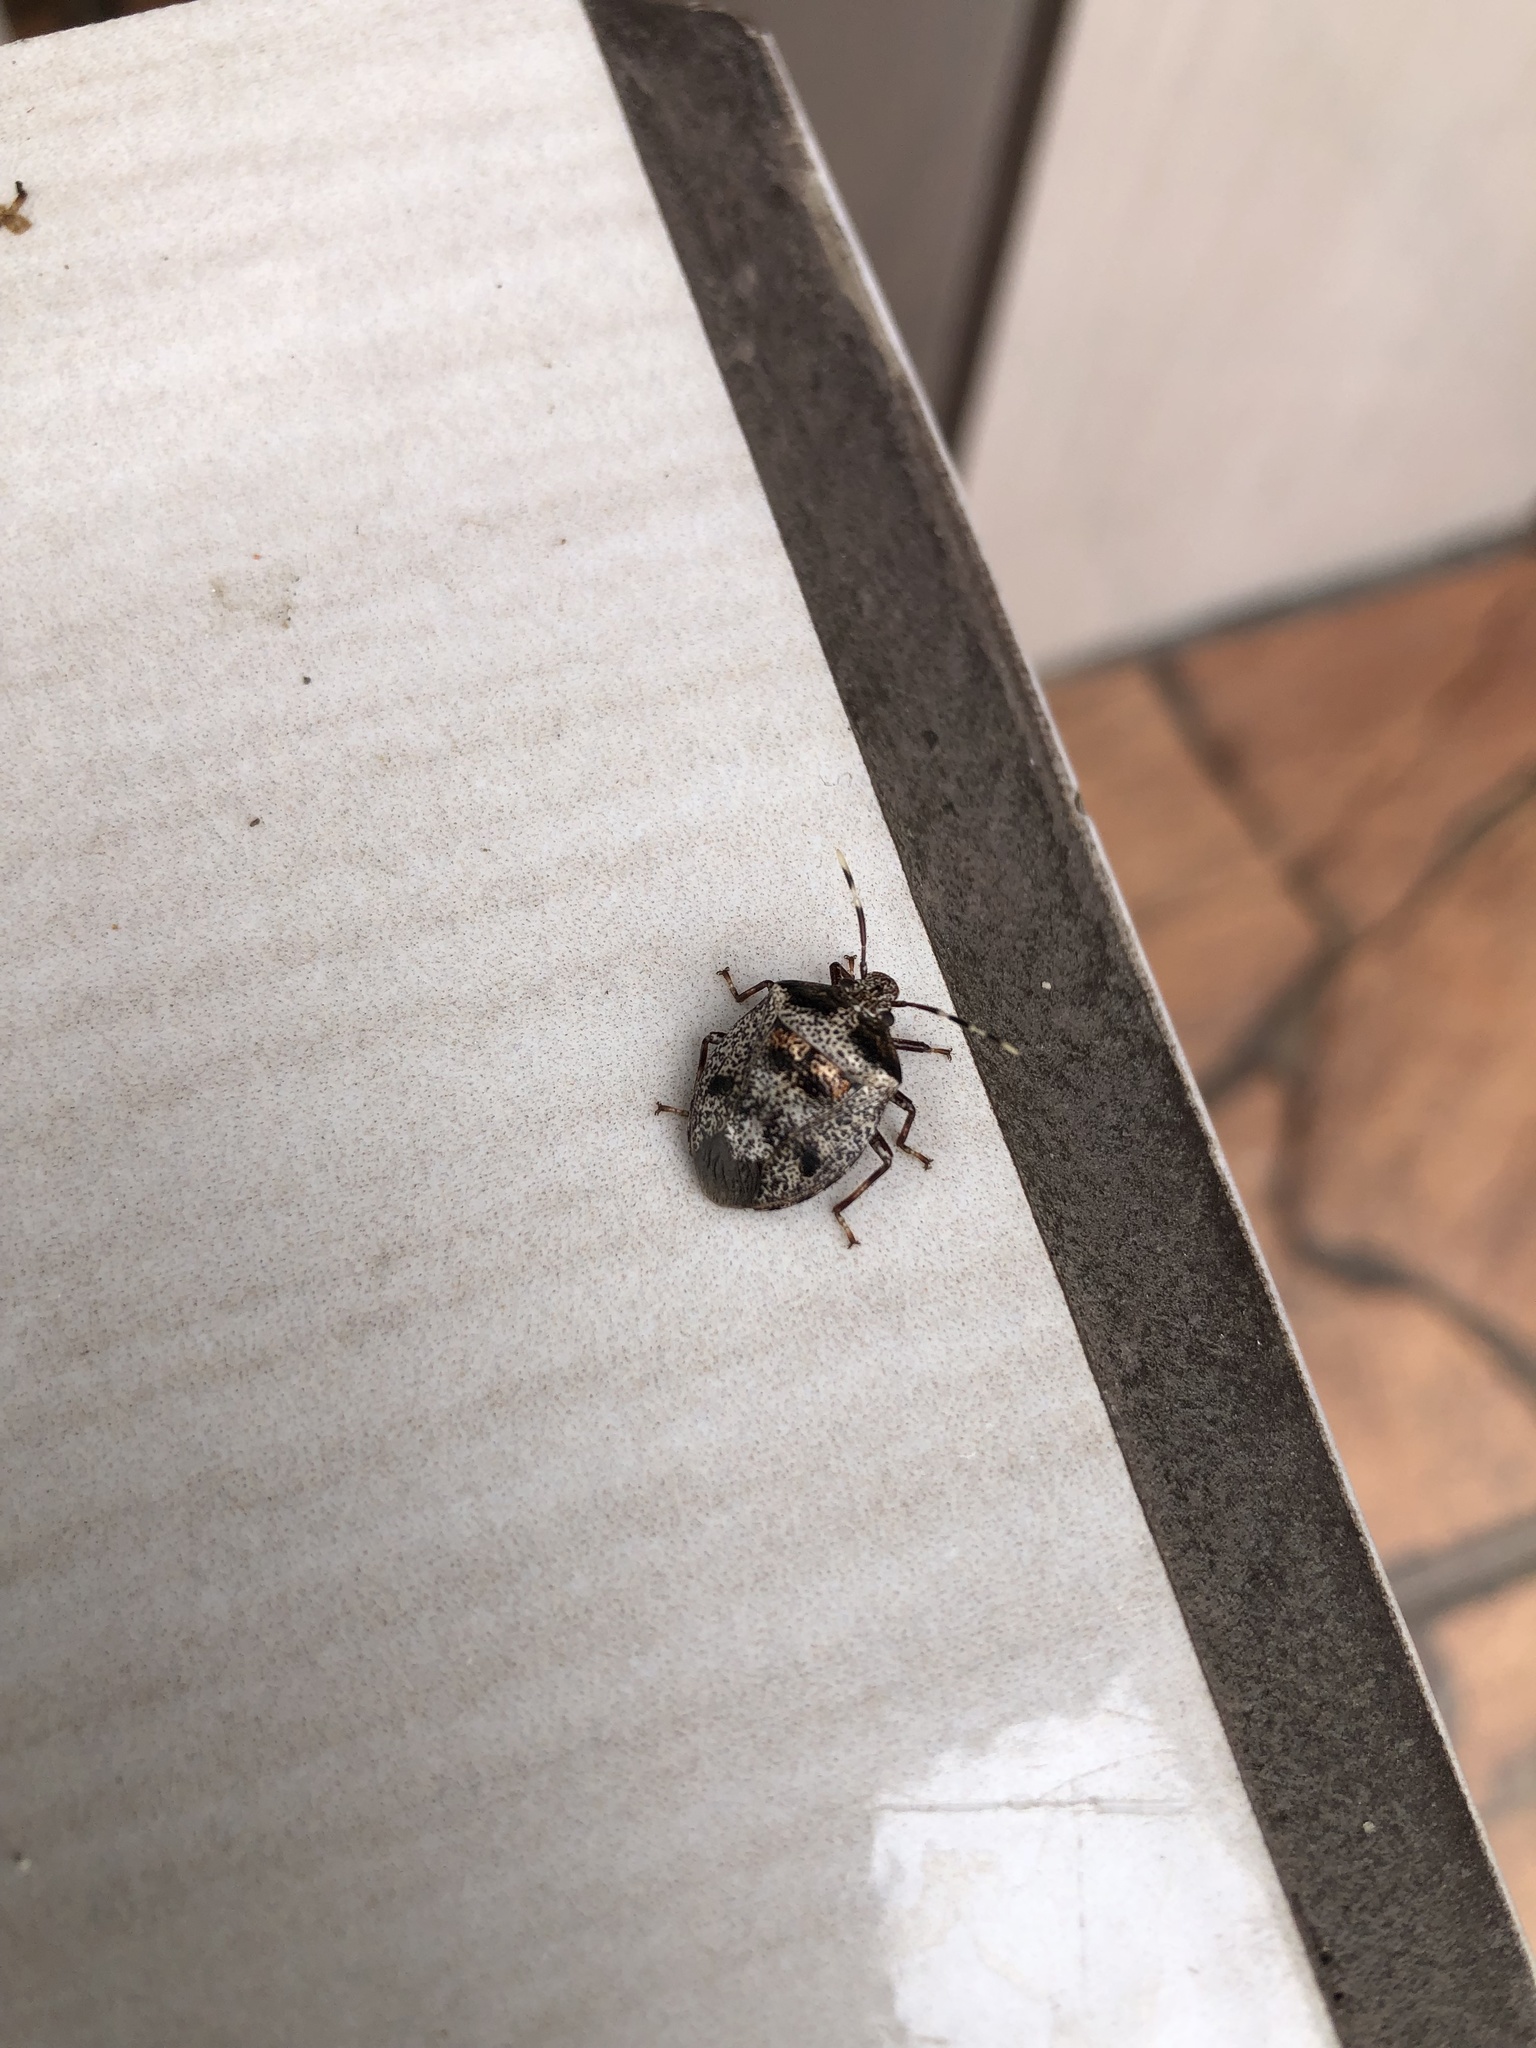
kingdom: Animalia
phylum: Arthropoda
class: Insecta
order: Hemiptera
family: Pentatomidae
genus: Antiteuchus
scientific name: Antiteuchus mixtus
